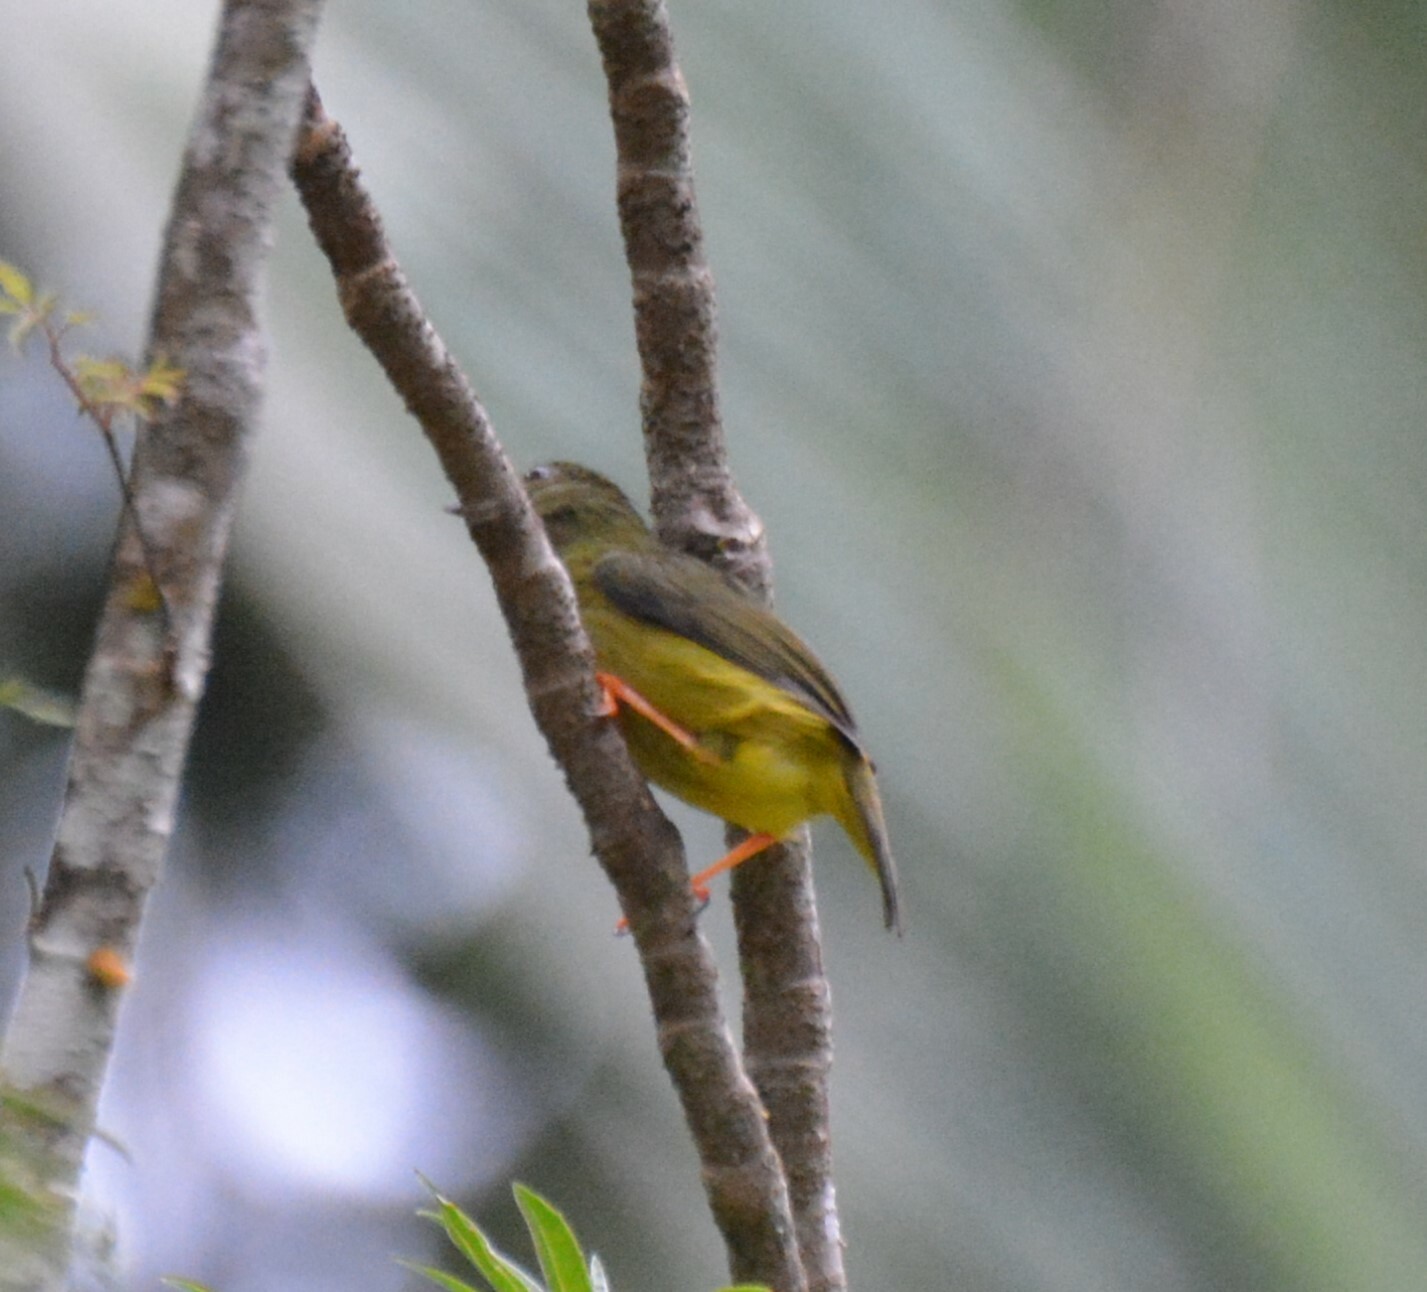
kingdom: Animalia
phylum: Chordata
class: Aves
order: Passeriformes
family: Pipridae
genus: Manacus
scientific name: Manacus candei
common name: White-collared manakin
